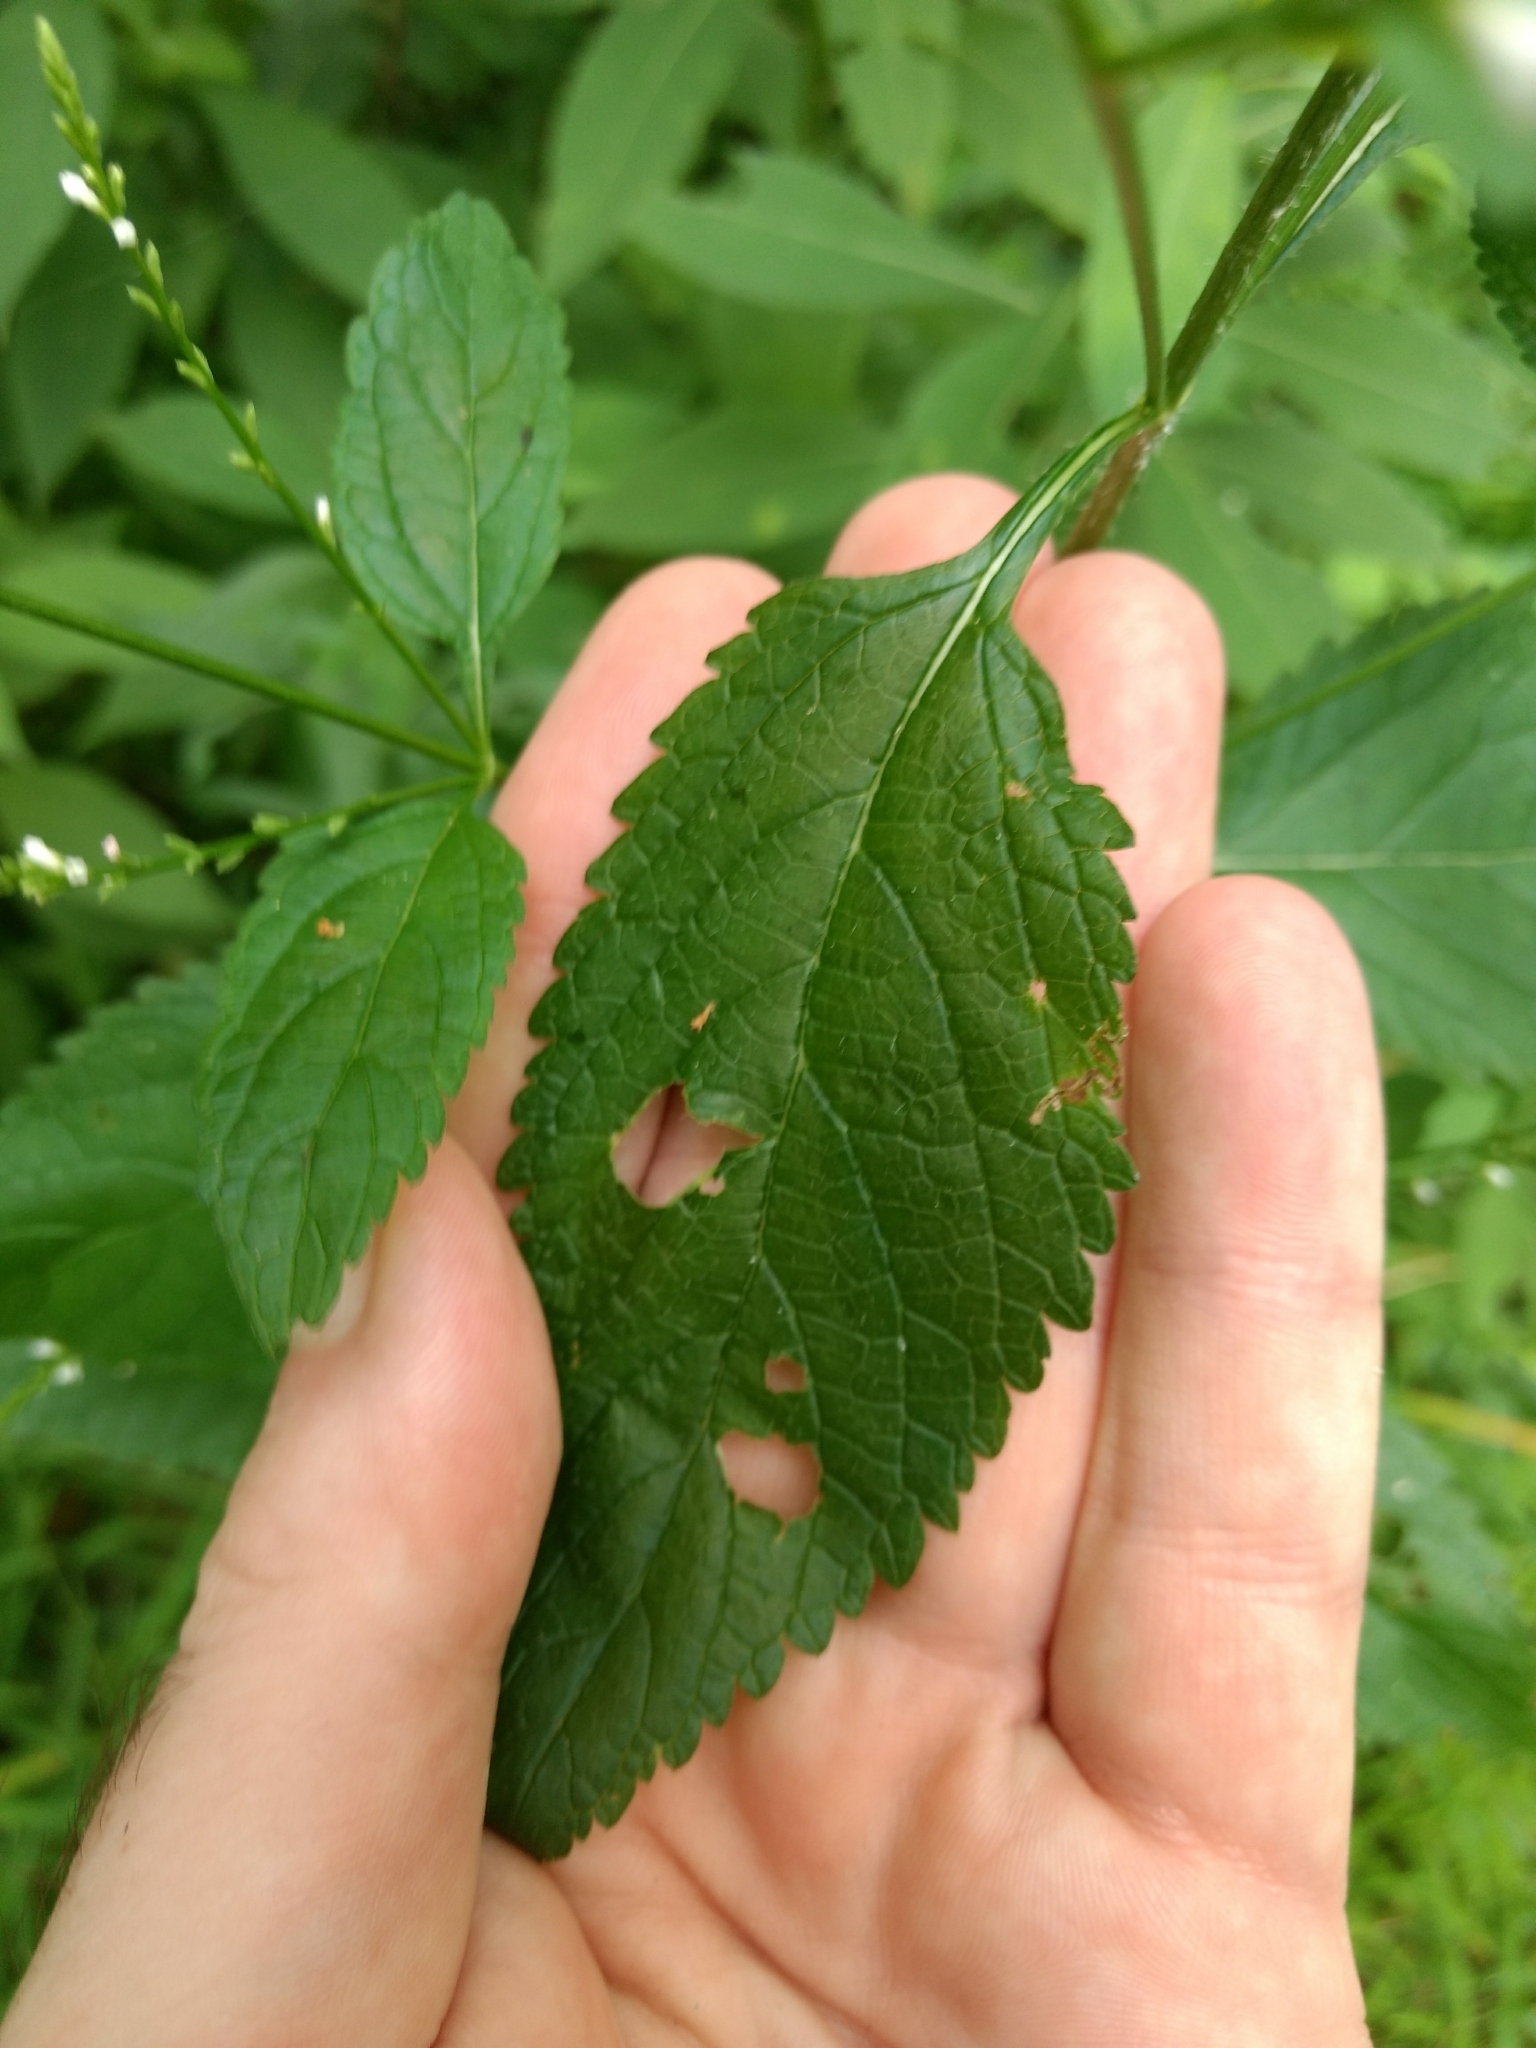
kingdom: Plantae
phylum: Tracheophyta
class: Magnoliopsida
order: Lamiales
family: Verbenaceae
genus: Verbena
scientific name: Verbena urticifolia
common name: Nettle-leaved vervain
